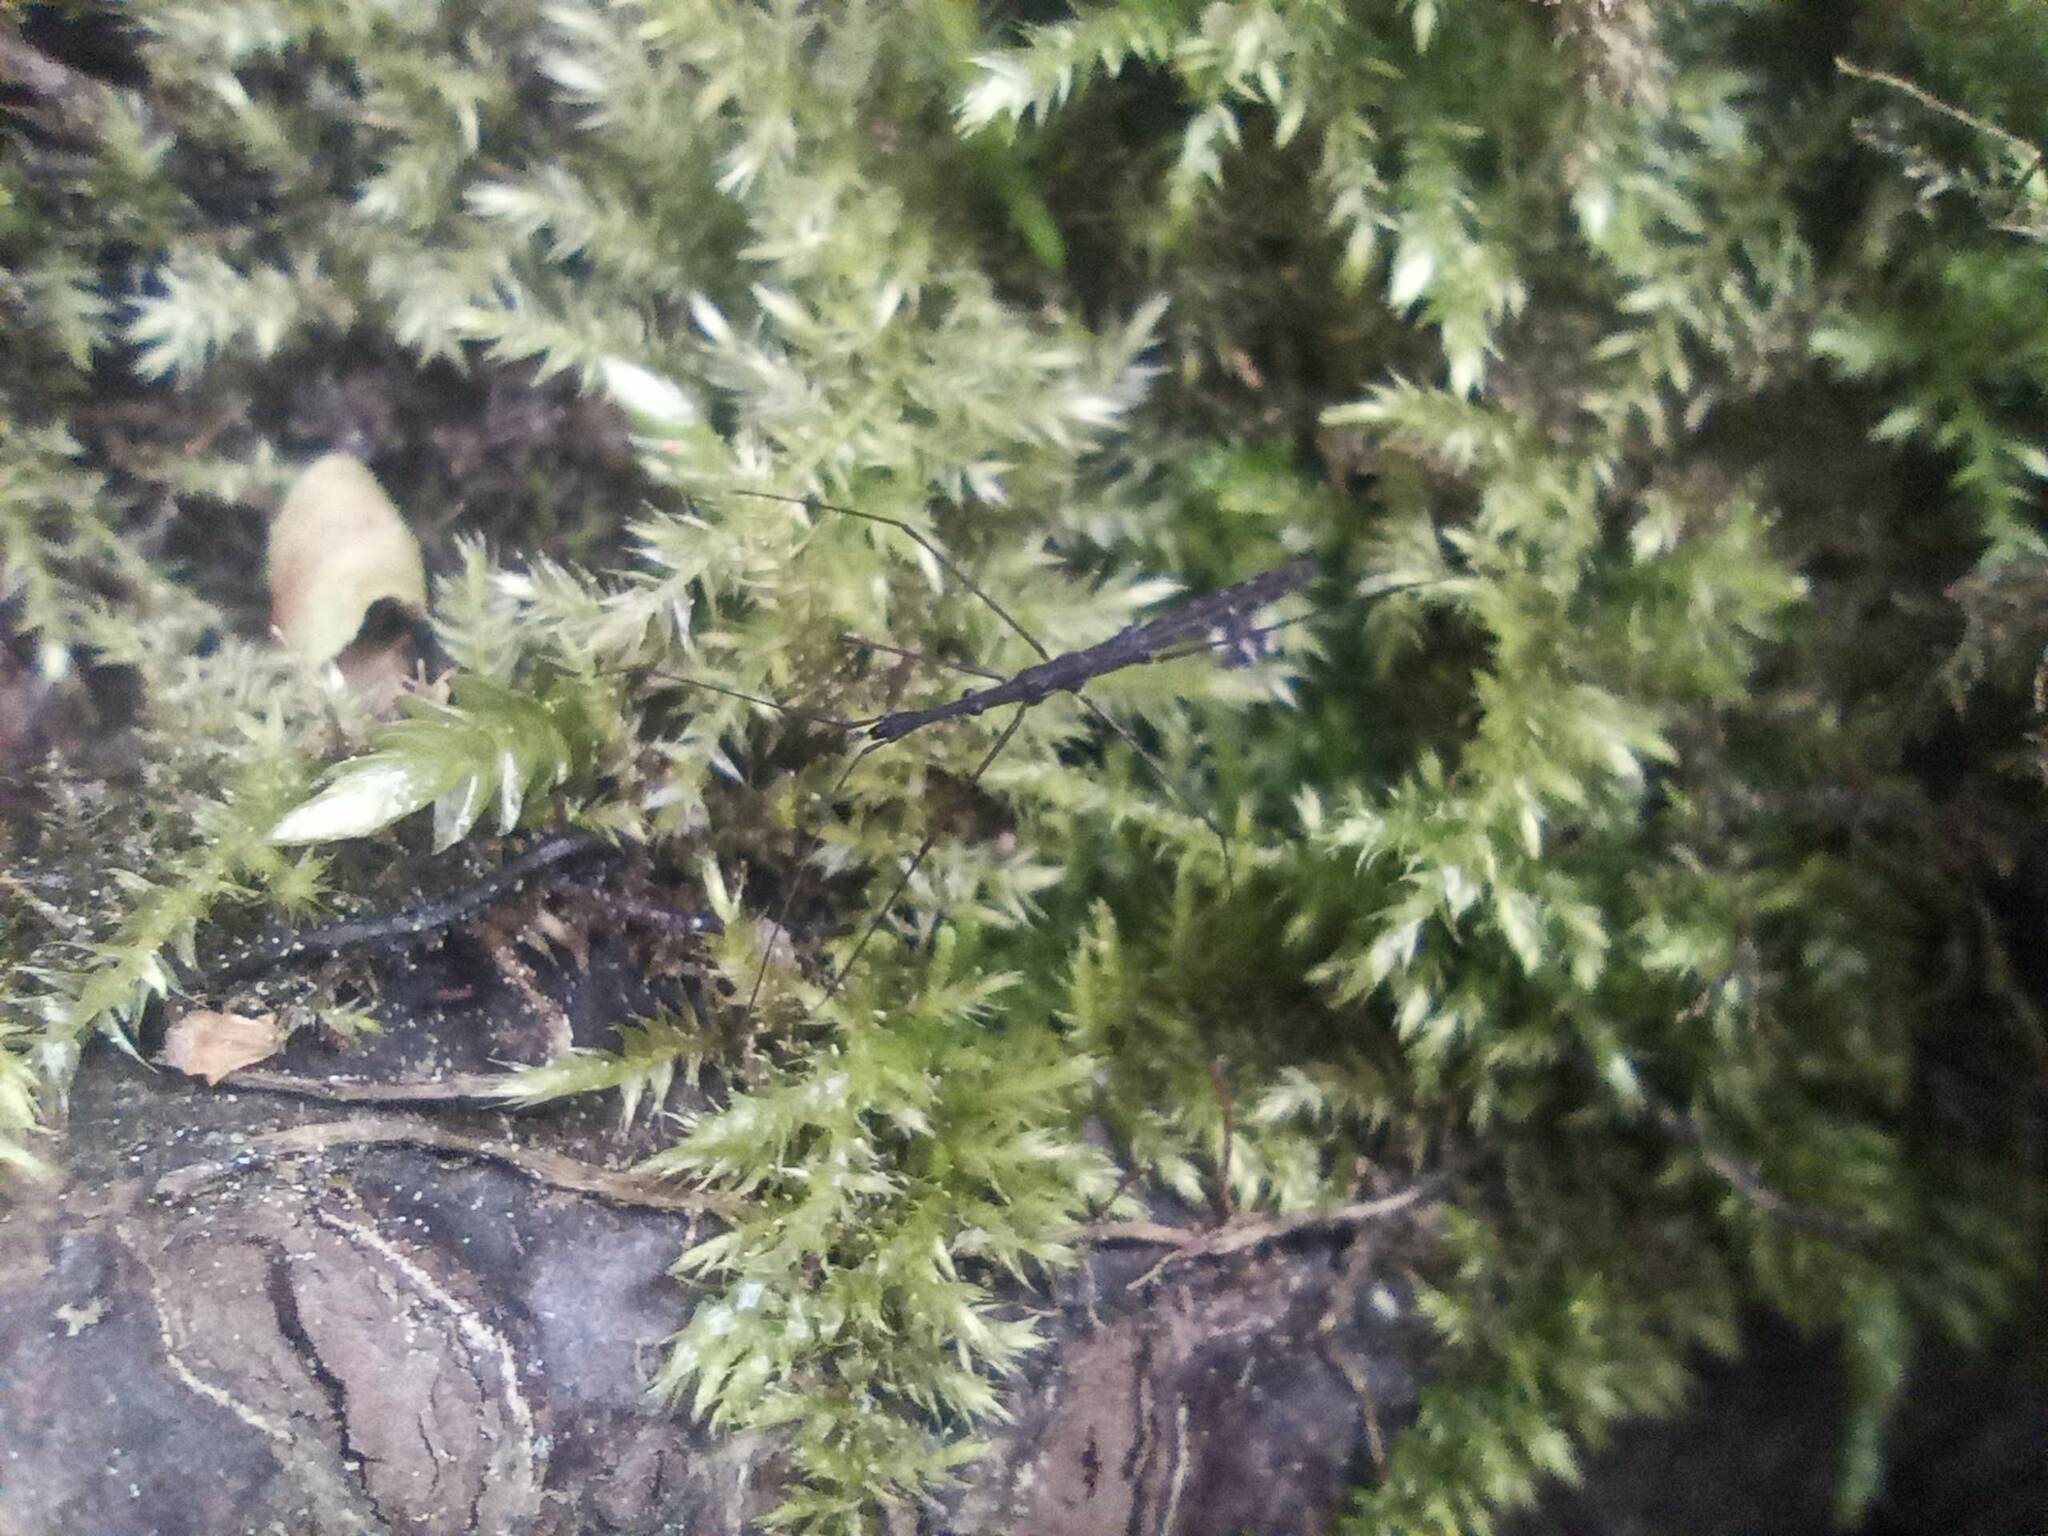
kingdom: Animalia
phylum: Arthropoda
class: Insecta
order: Hemiptera
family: Hydrometridae
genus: Hydrometra
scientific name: Hydrometra stagnorum
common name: Water measurer
